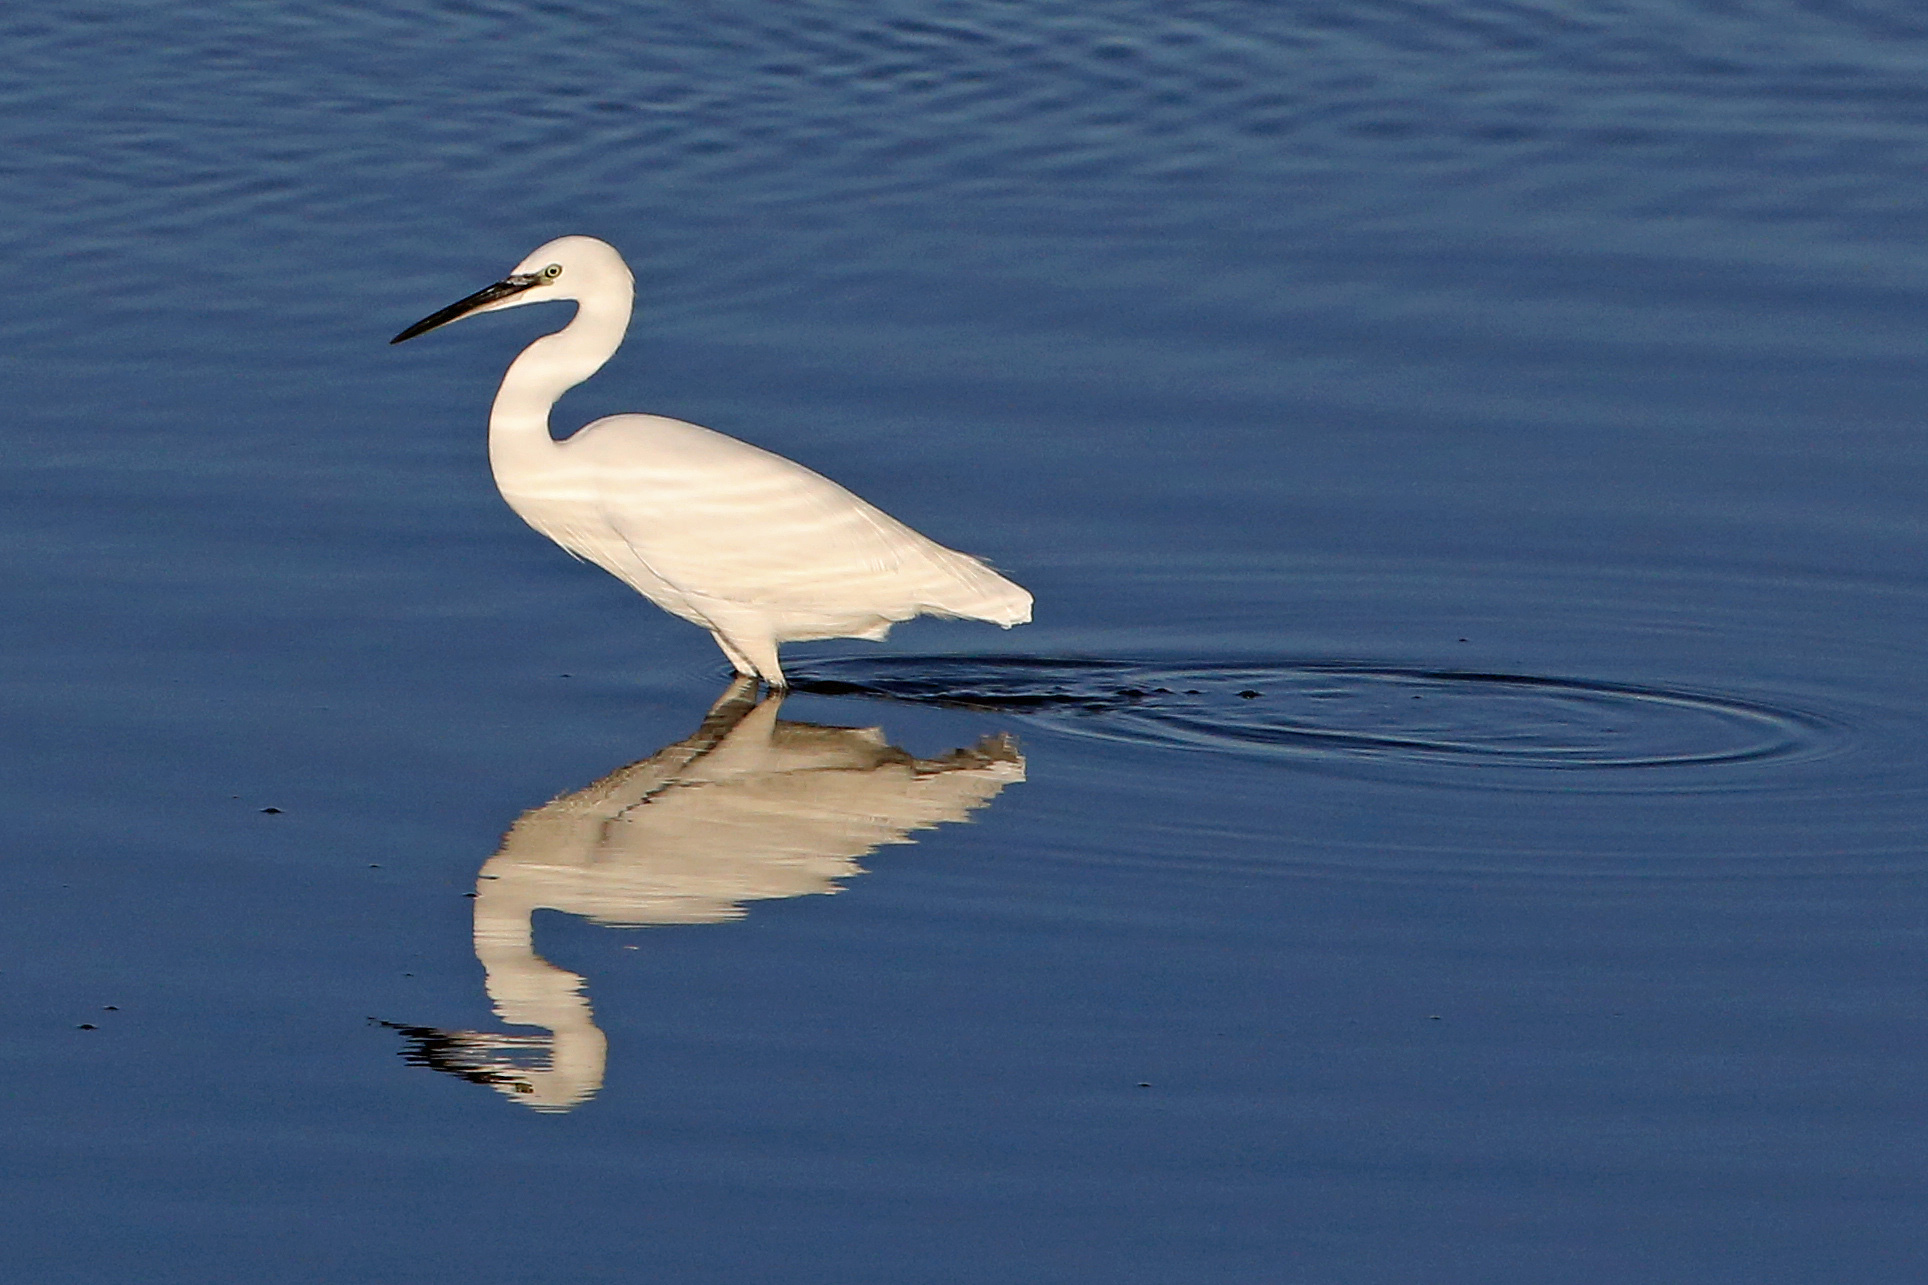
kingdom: Animalia
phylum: Chordata
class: Aves
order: Pelecaniformes
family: Ardeidae
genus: Egretta
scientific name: Egretta garzetta
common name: Little egret
